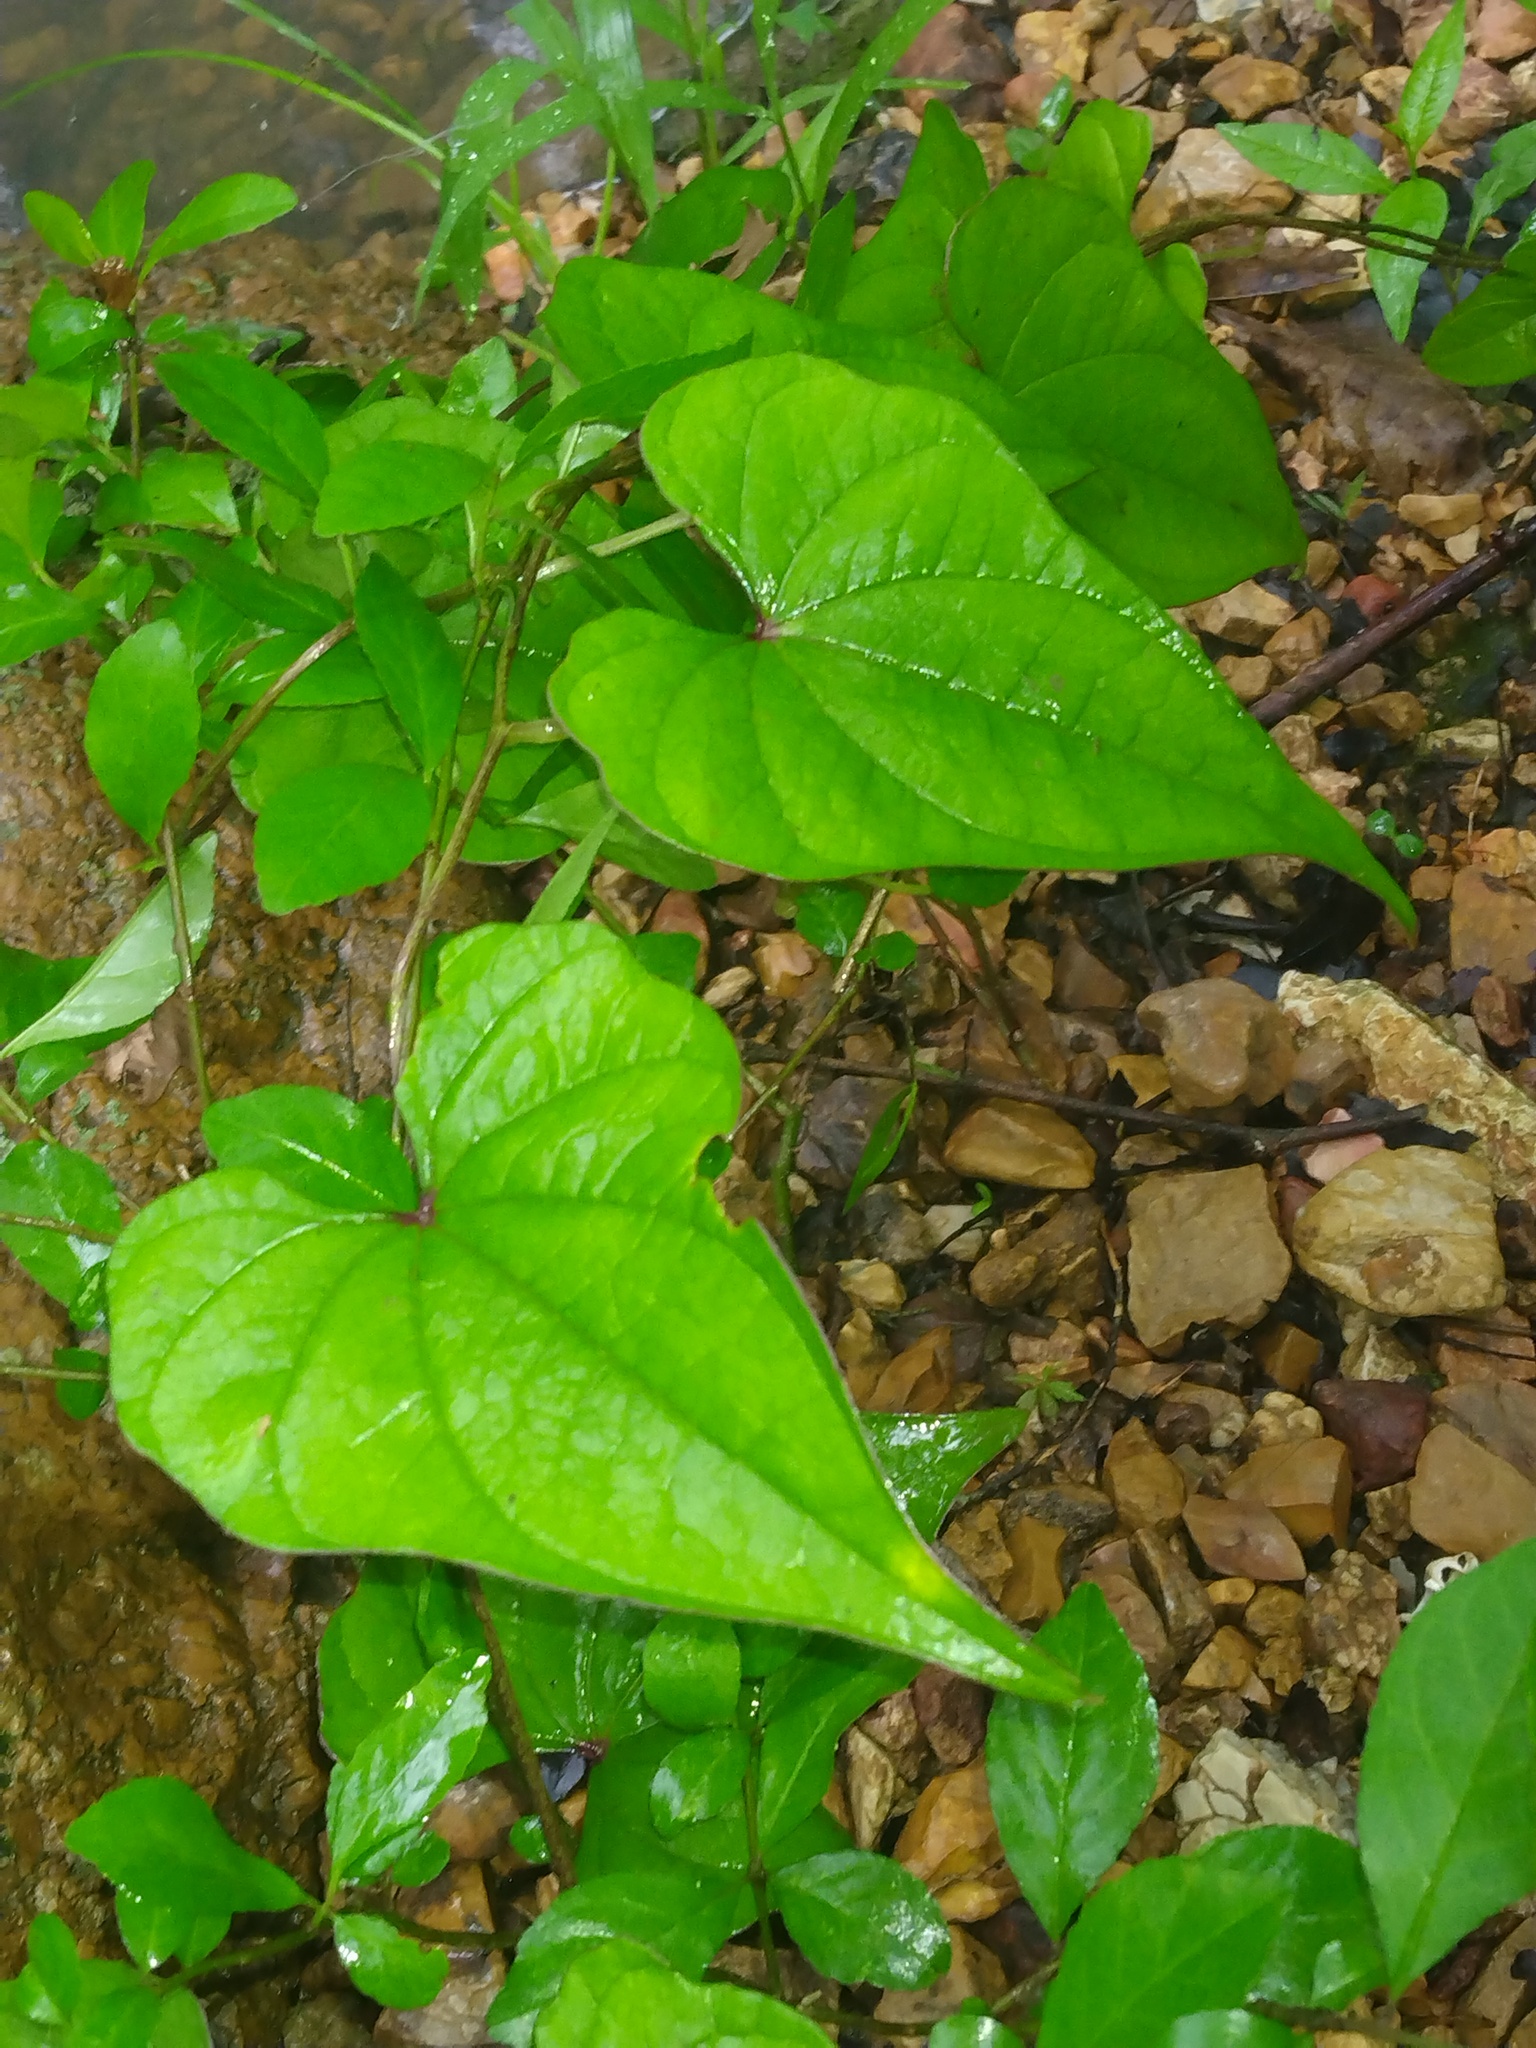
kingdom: Plantae
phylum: Tracheophyta
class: Liliopsida
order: Dioscoreales
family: Dioscoreaceae
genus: Dioscorea
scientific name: Dioscorea polystachya
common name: Chinese yam
